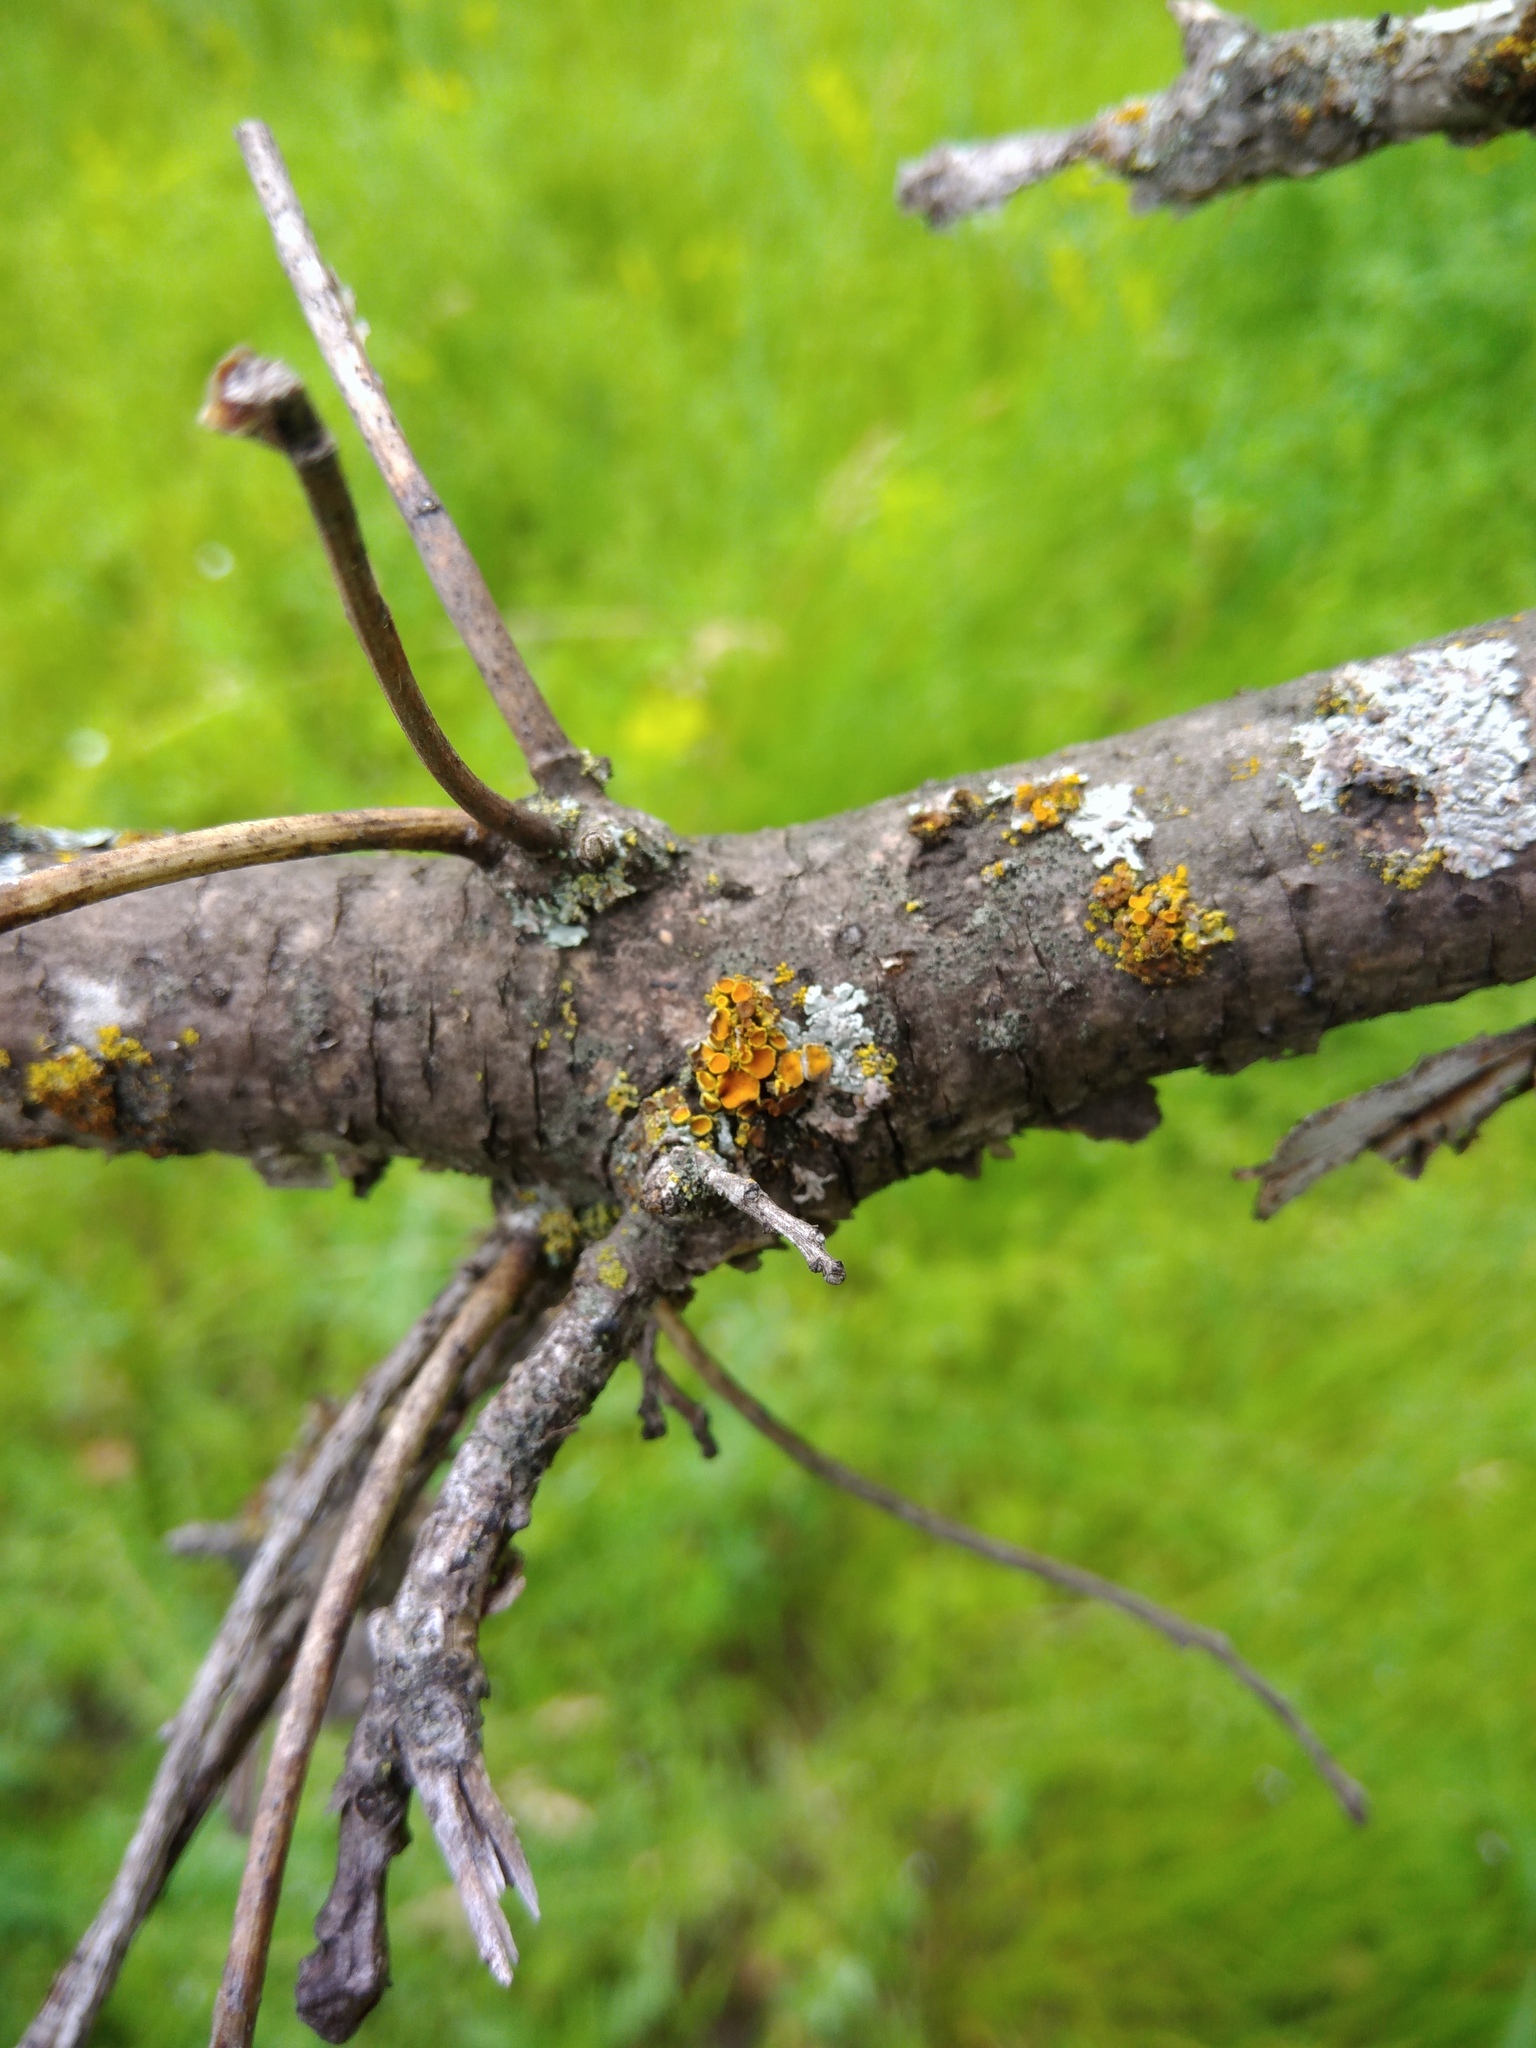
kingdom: Fungi
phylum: Ascomycota
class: Lecanoromycetes
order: Teloschistales
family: Teloschistaceae
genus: Polycauliona
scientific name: Polycauliona polycarpa
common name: Pin-cushion sunburst lichen
